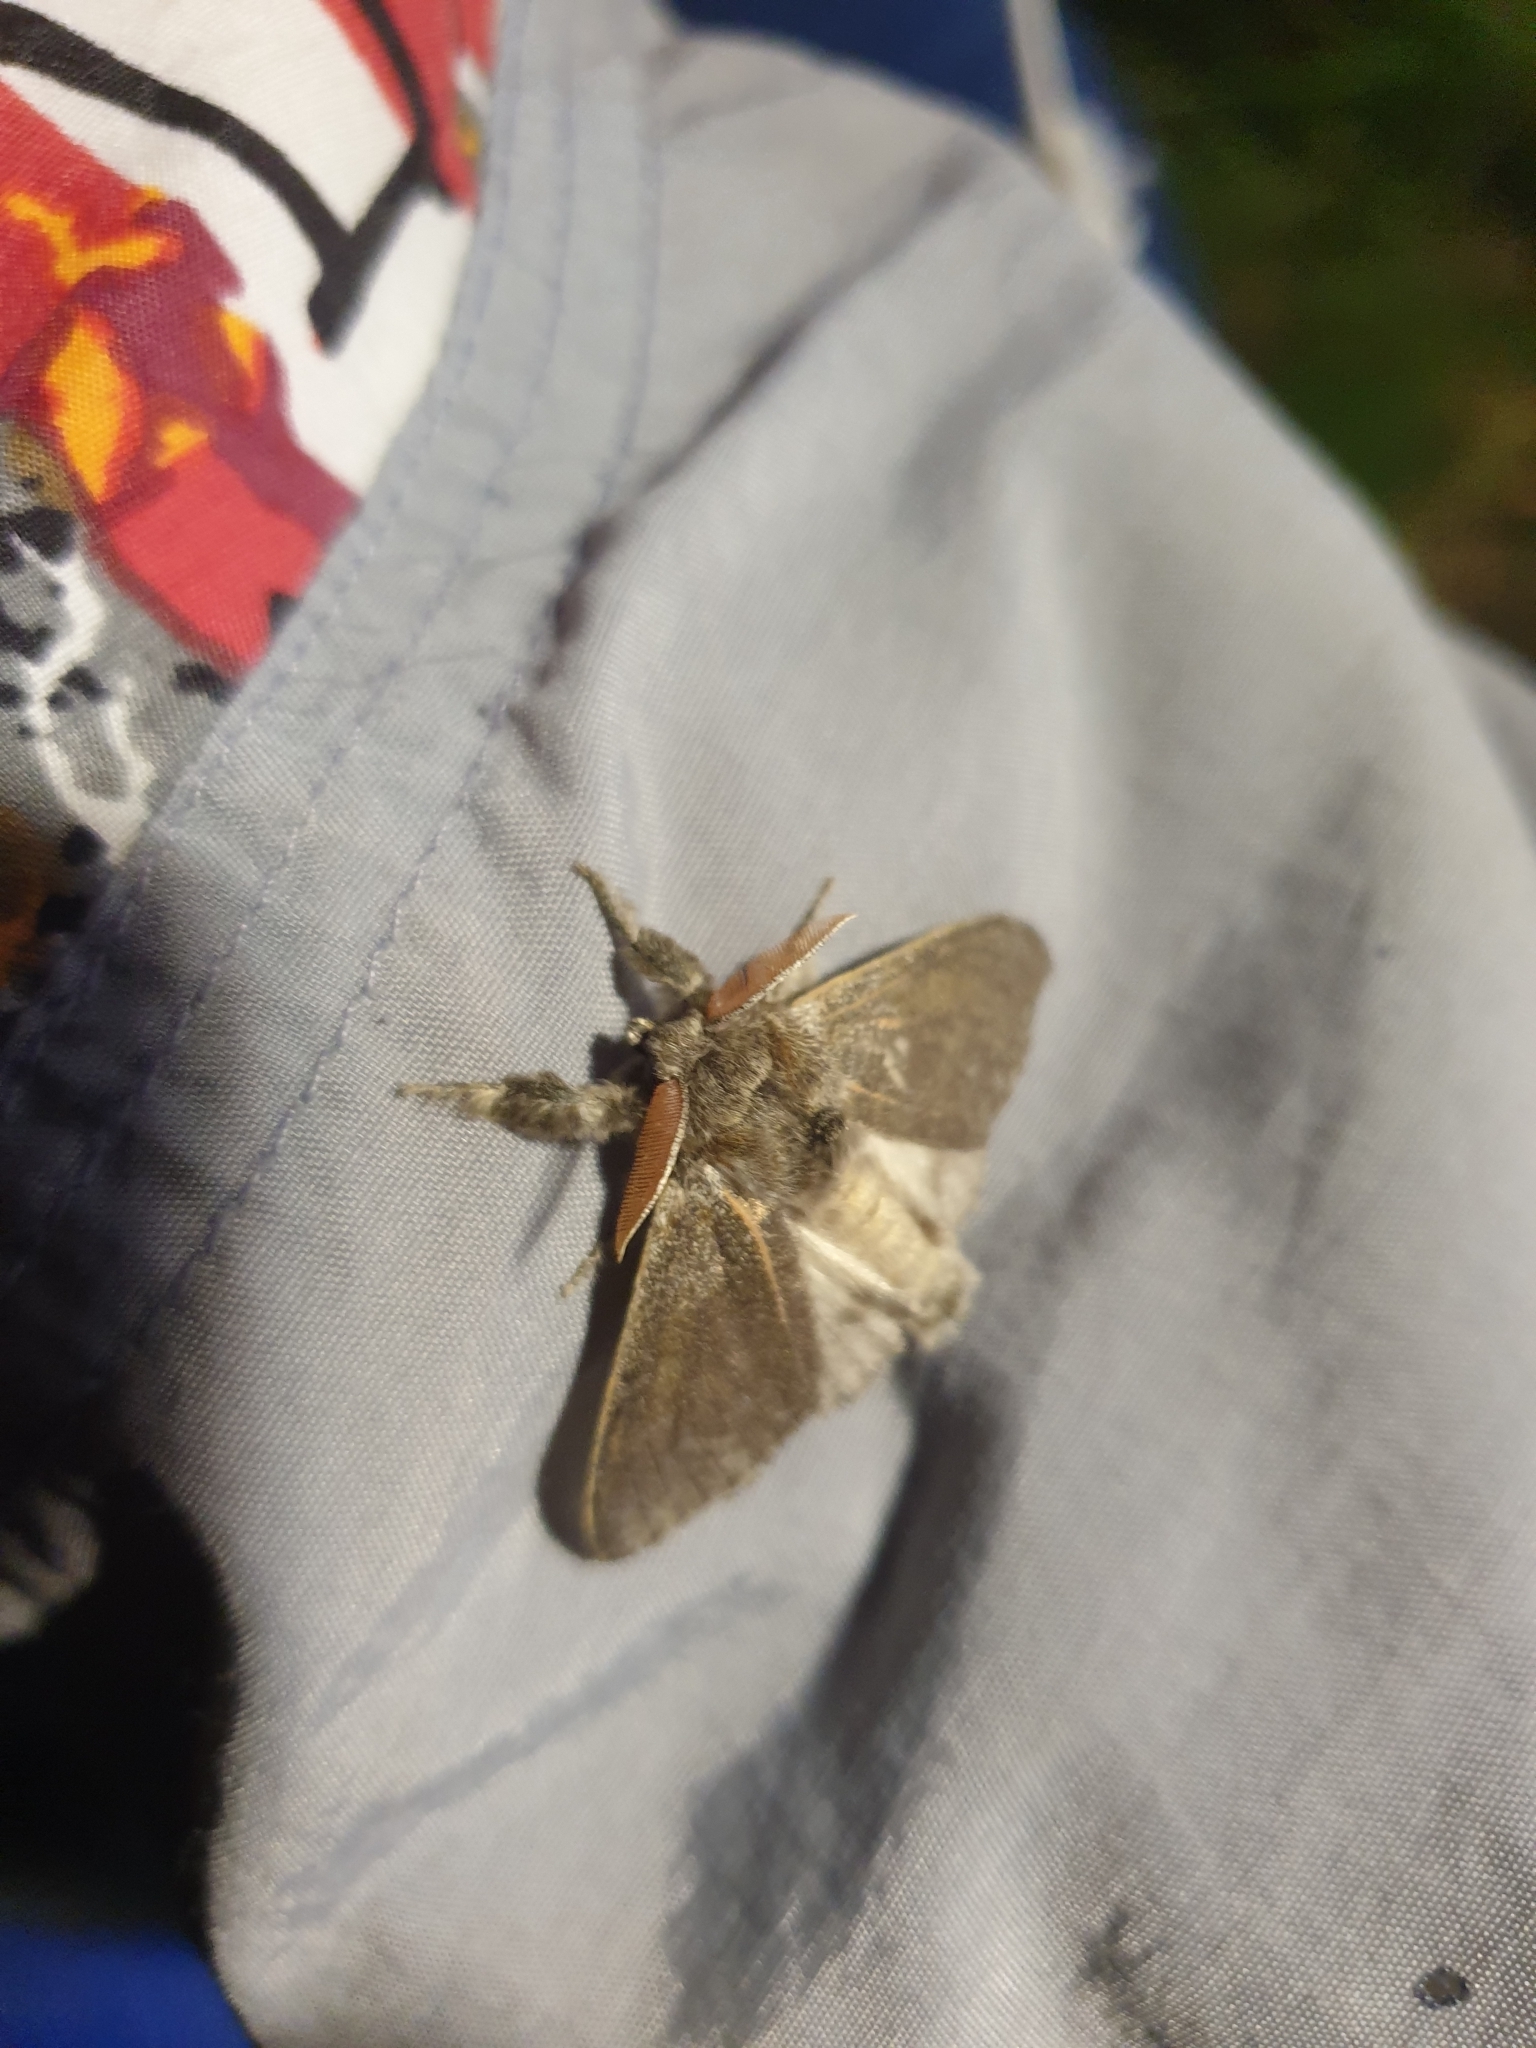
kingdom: Animalia
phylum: Arthropoda
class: Insecta
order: Lepidoptera
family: Erebidae
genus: Calliteara
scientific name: Calliteara pudibunda
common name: Pale tussock
